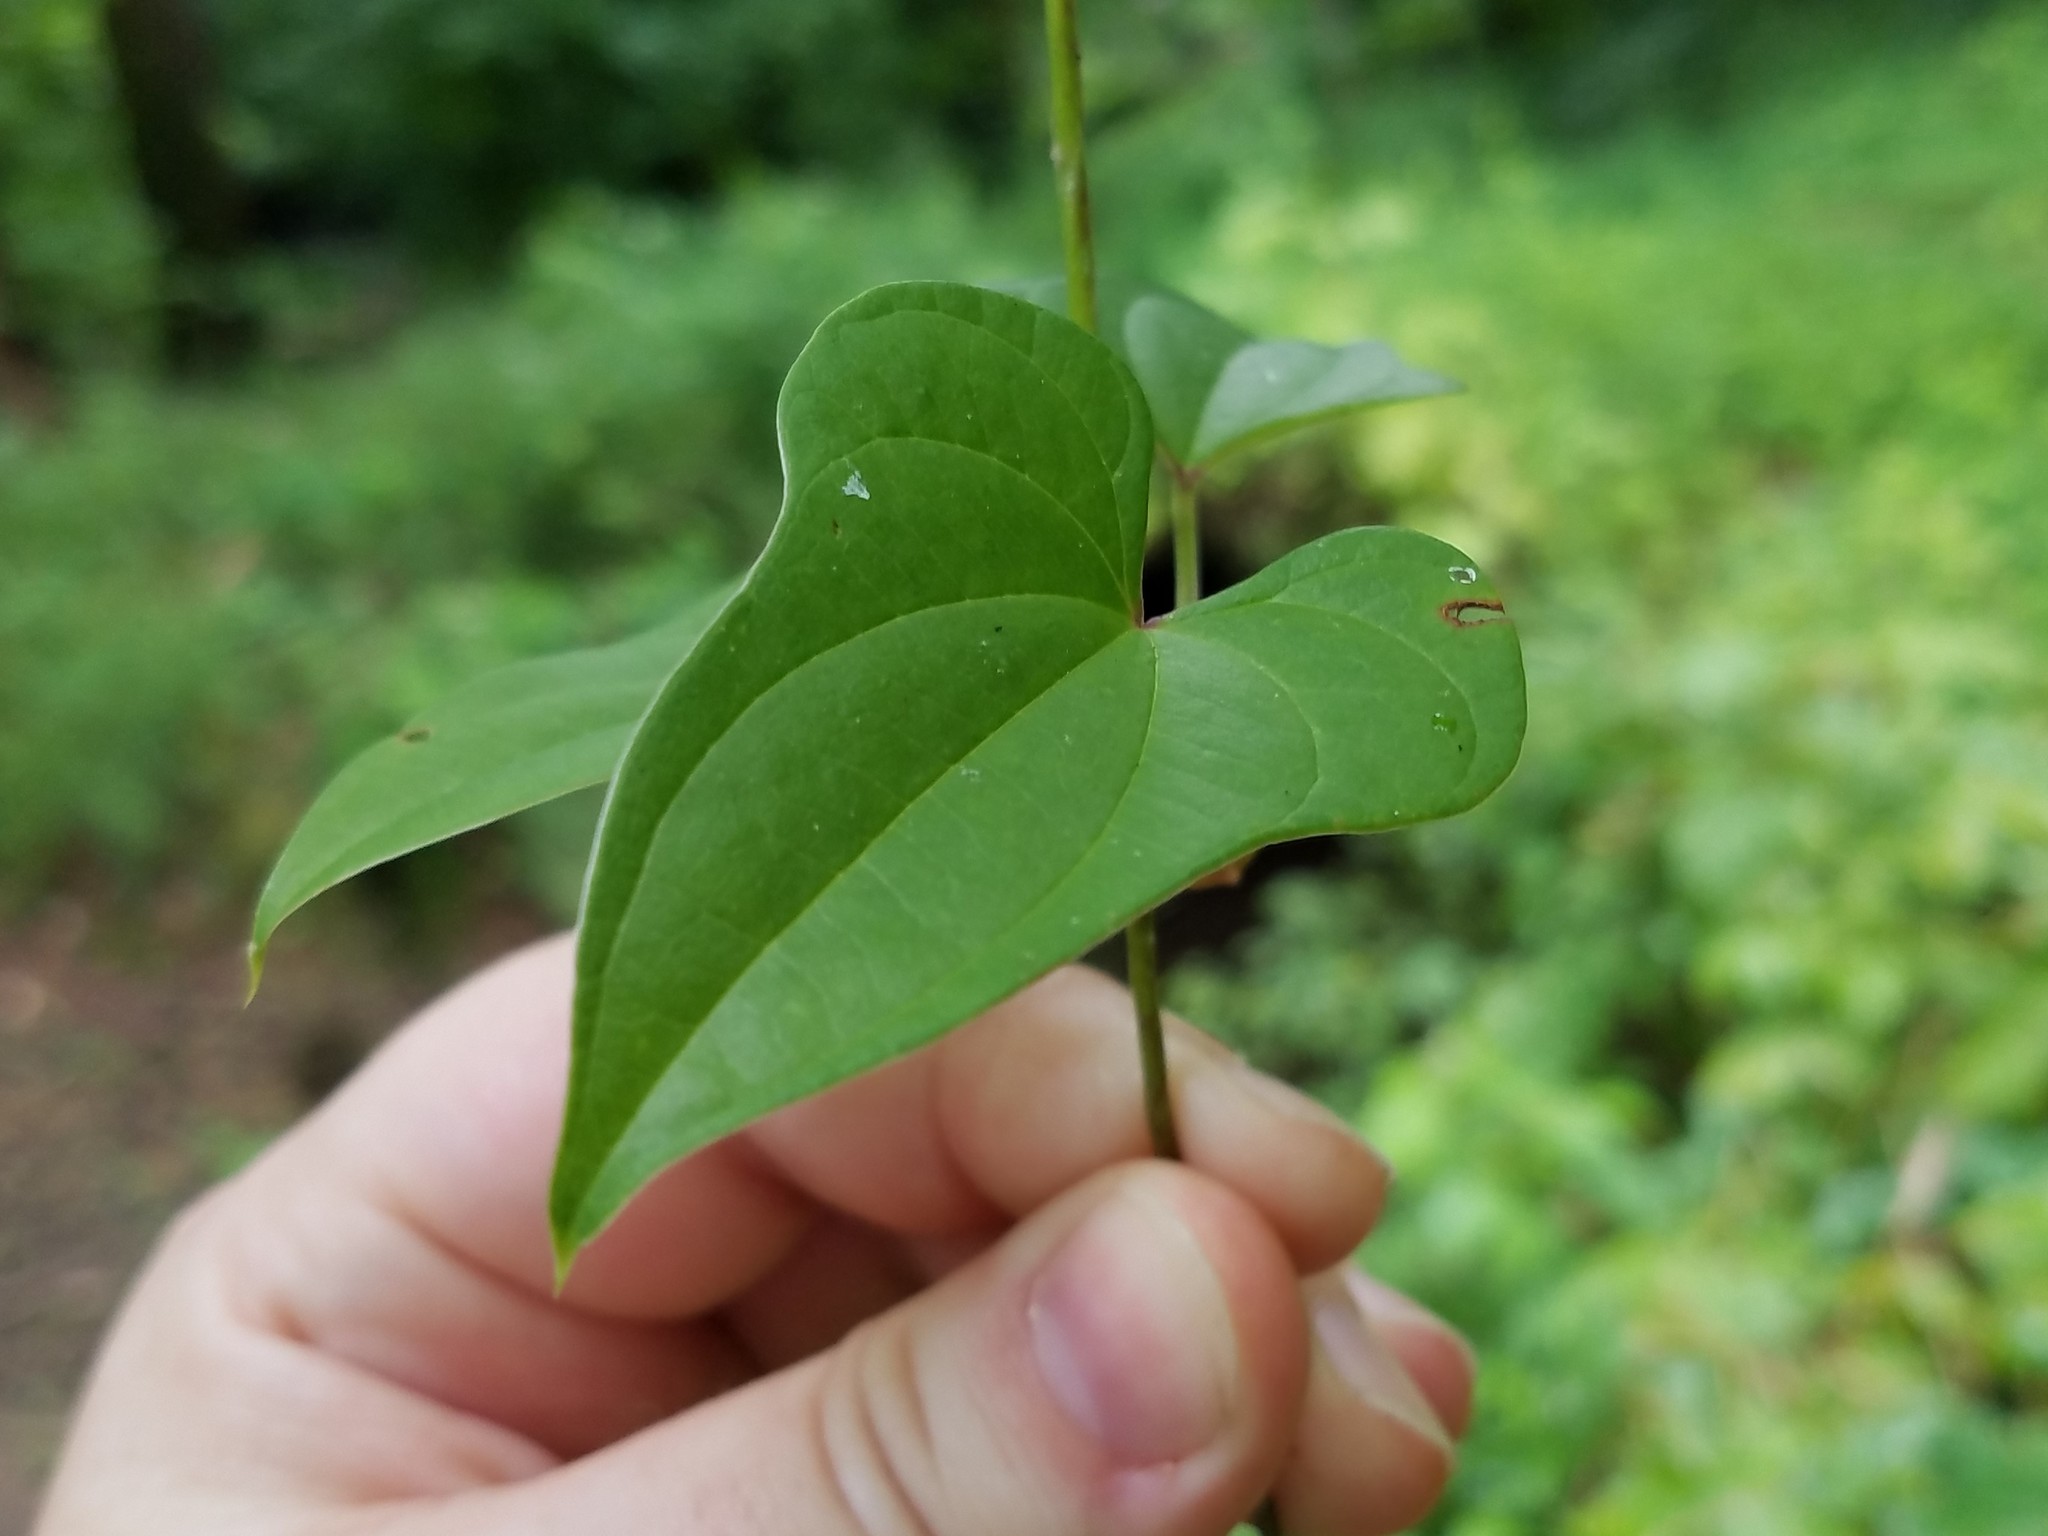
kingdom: Plantae
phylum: Tracheophyta
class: Liliopsida
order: Dioscoreales
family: Dioscoreaceae
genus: Dioscorea
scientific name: Dioscorea polystachya
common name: Chinese yam
